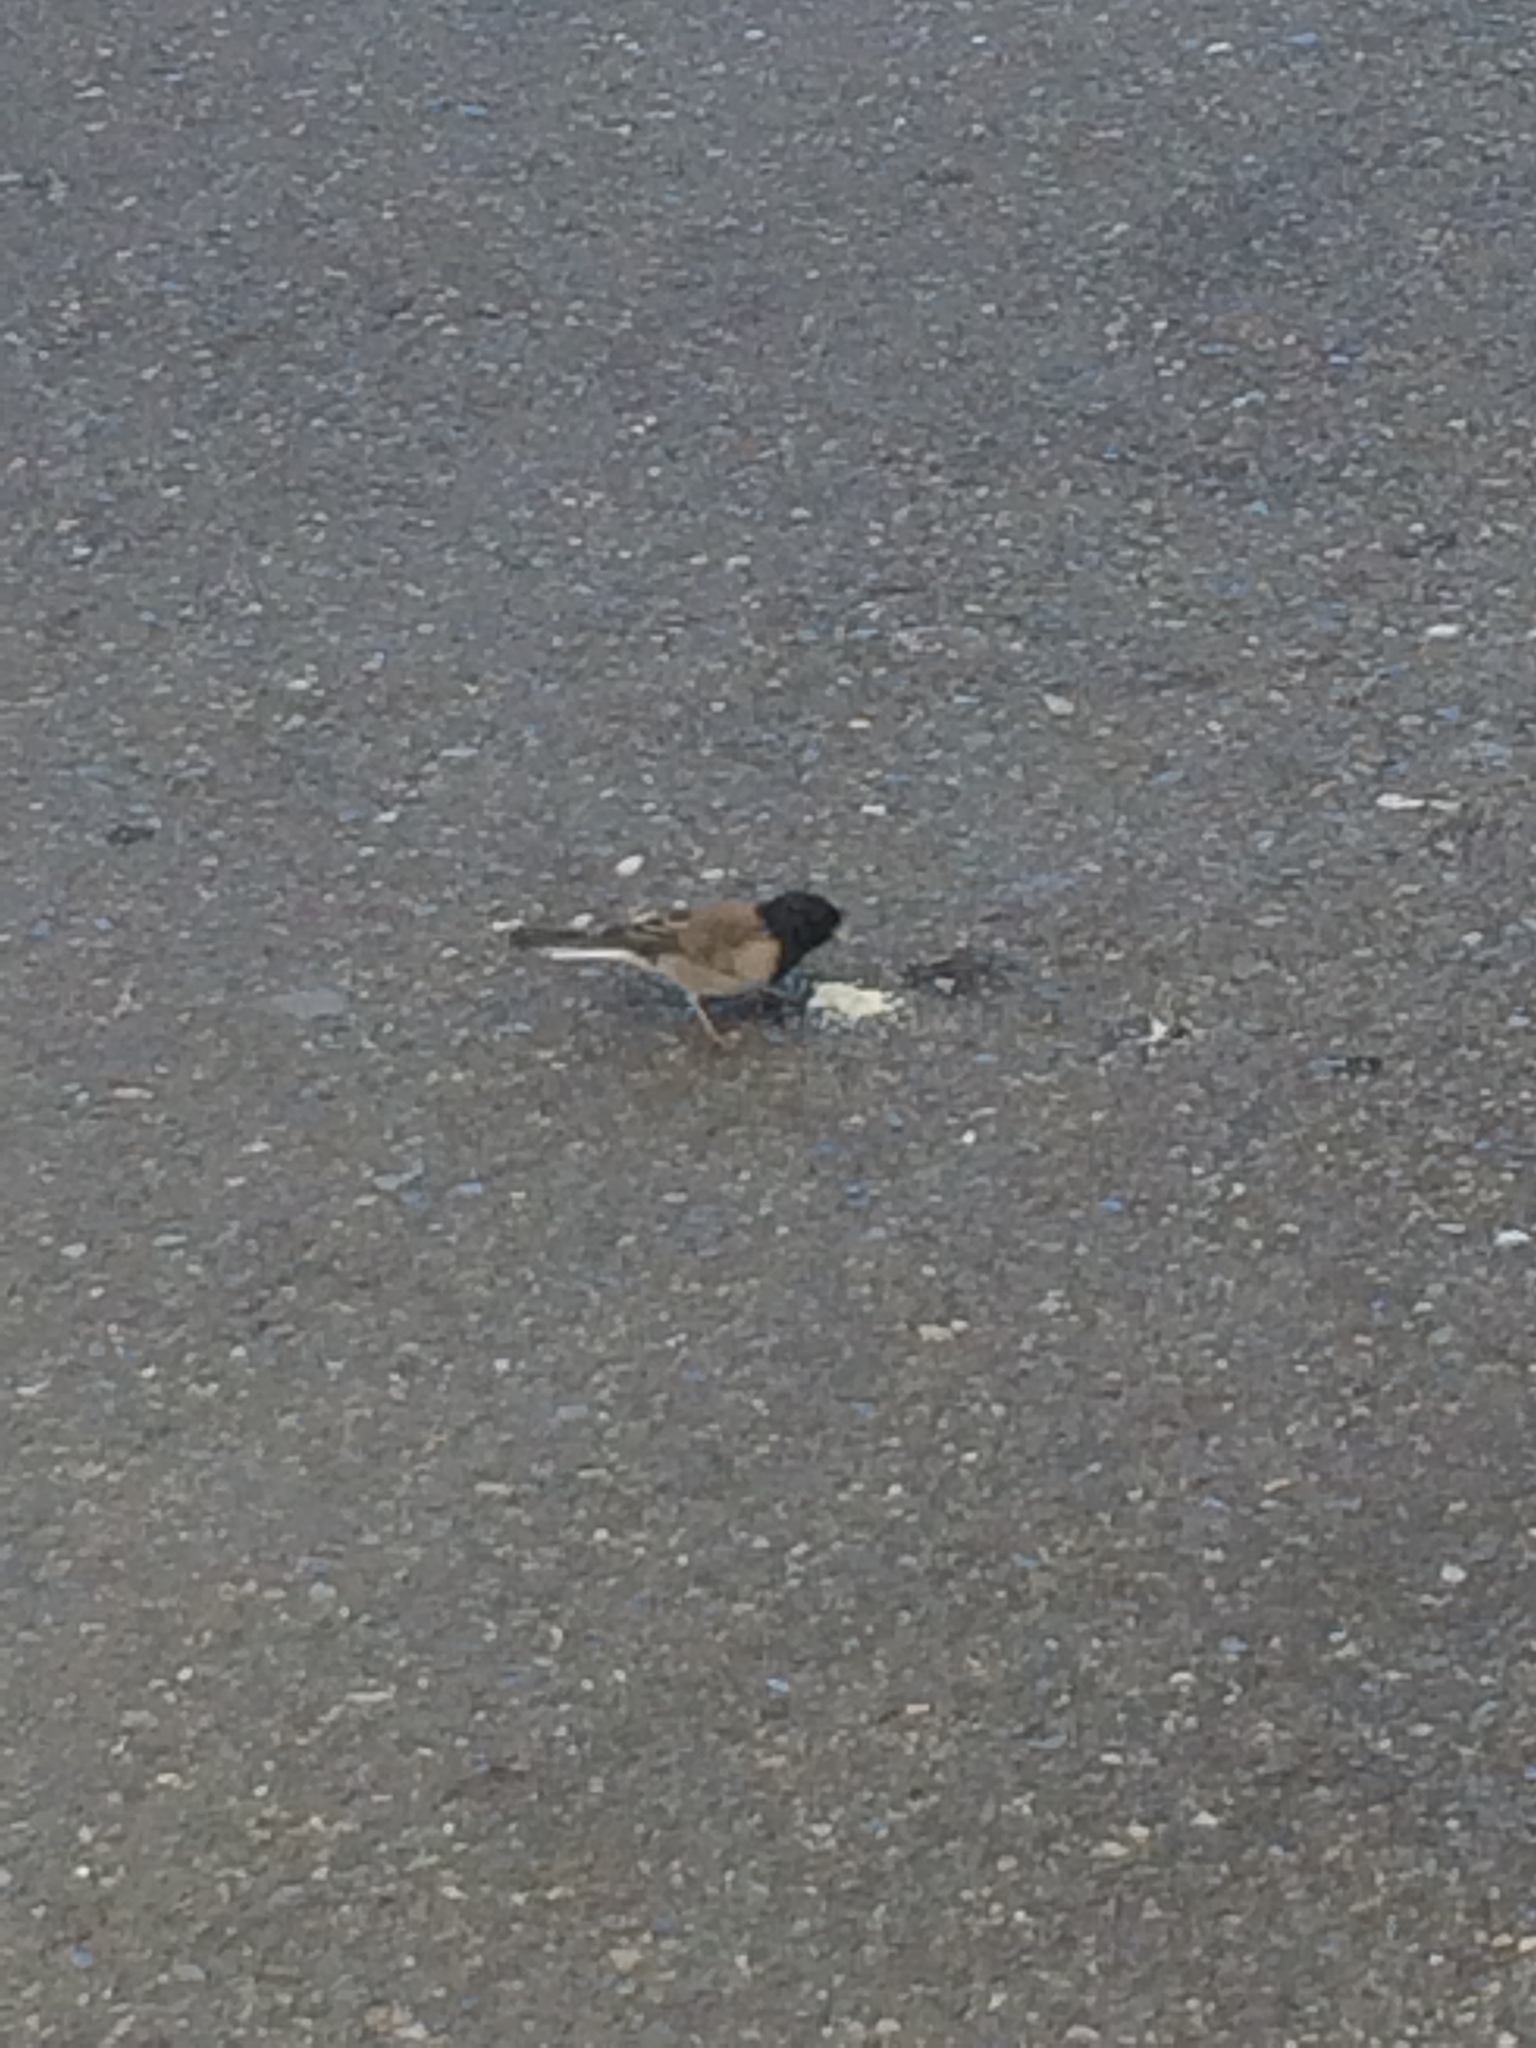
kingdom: Animalia
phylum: Chordata
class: Aves
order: Passeriformes
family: Passerellidae
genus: Junco
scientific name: Junco hyemalis
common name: Dark-eyed junco
